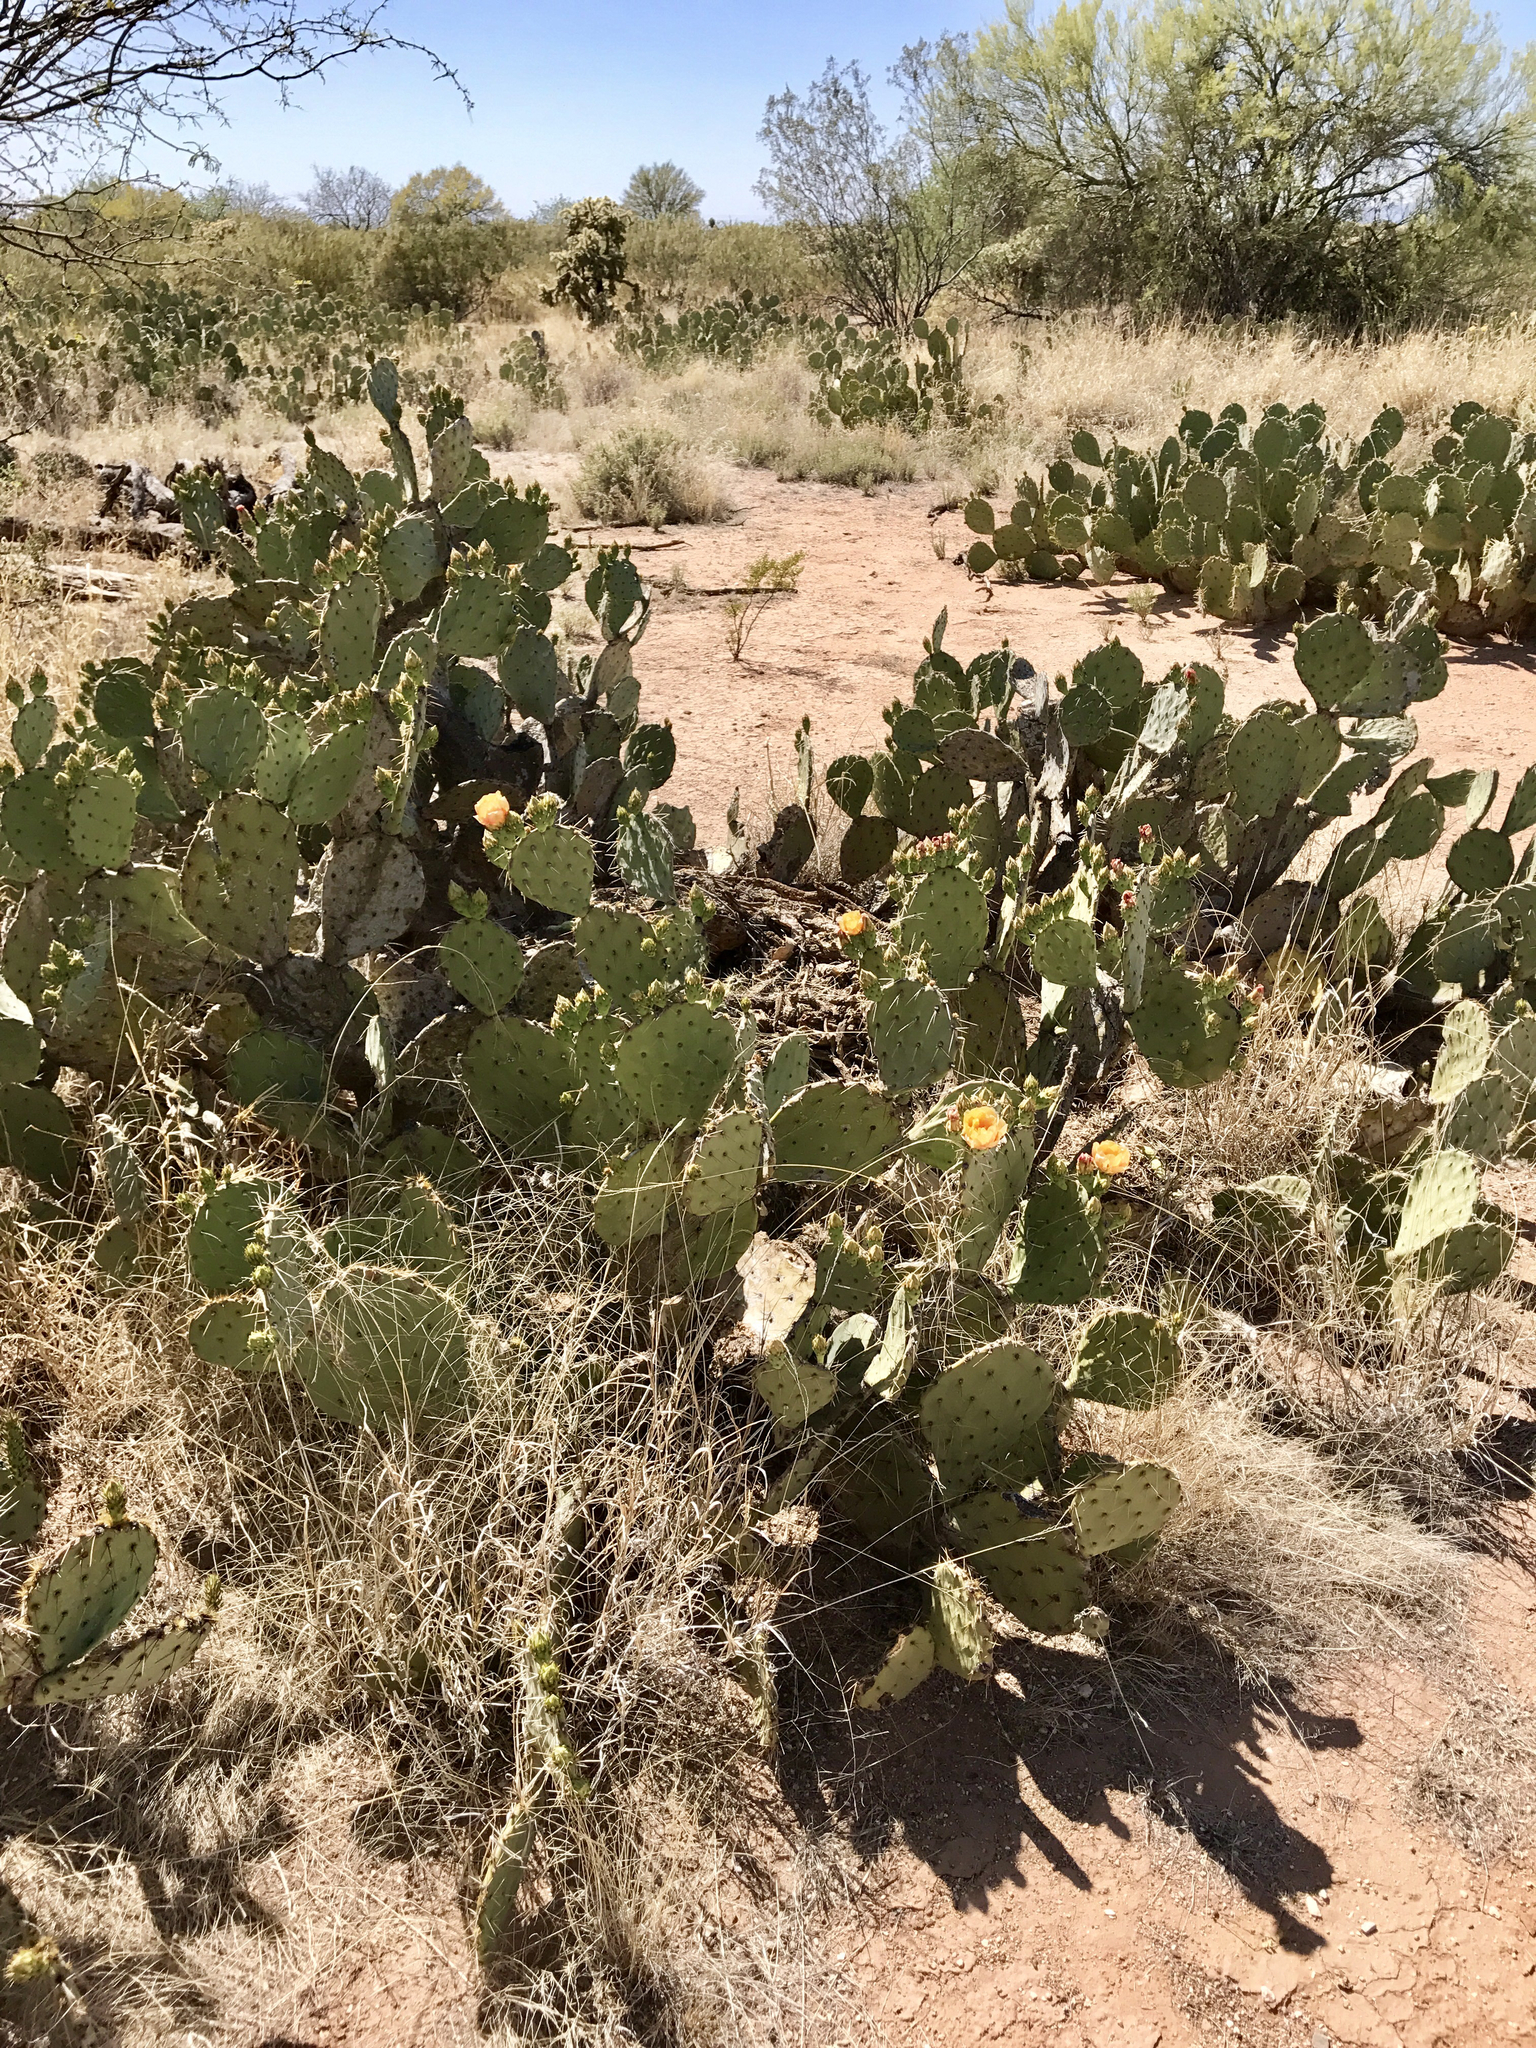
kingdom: Plantae
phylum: Tracheophyta
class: Magnoliopsida
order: Caryophyllales
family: Cactaceae
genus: Opuntia
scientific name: Opuntia phaeacantha
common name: New mexico prickly-pear
